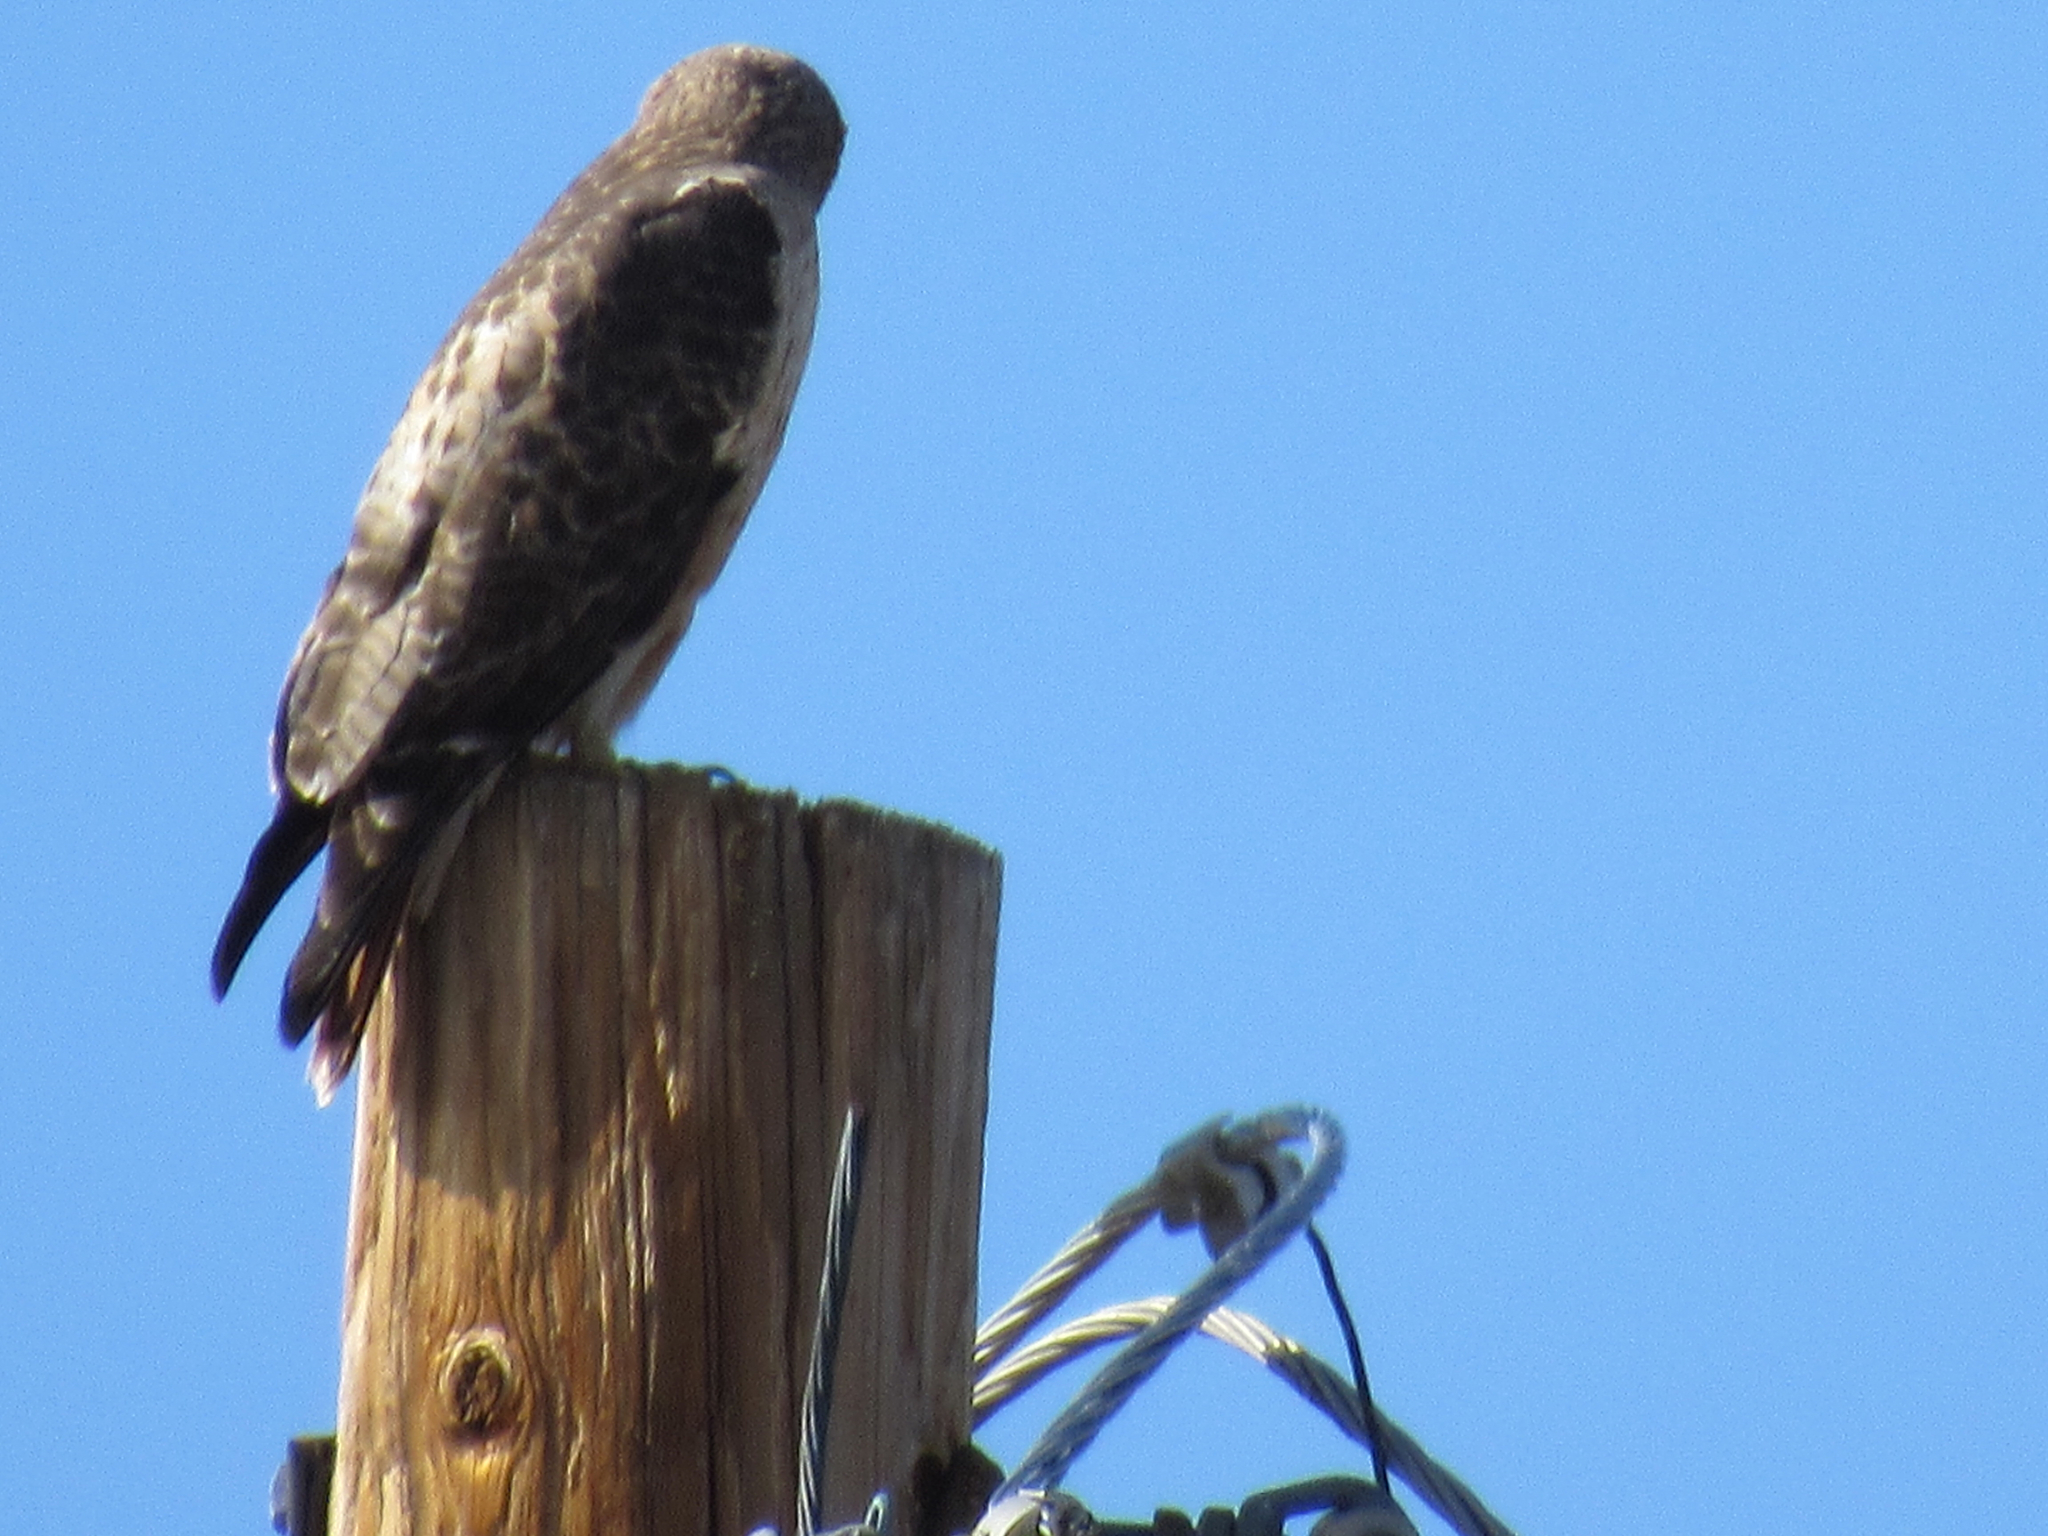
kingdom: Animalia
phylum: Chordata
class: Aves
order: Accipitriformes
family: Accipitridae
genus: Buteo
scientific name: Buteo jamaicensis
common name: Red-tailed hawk
